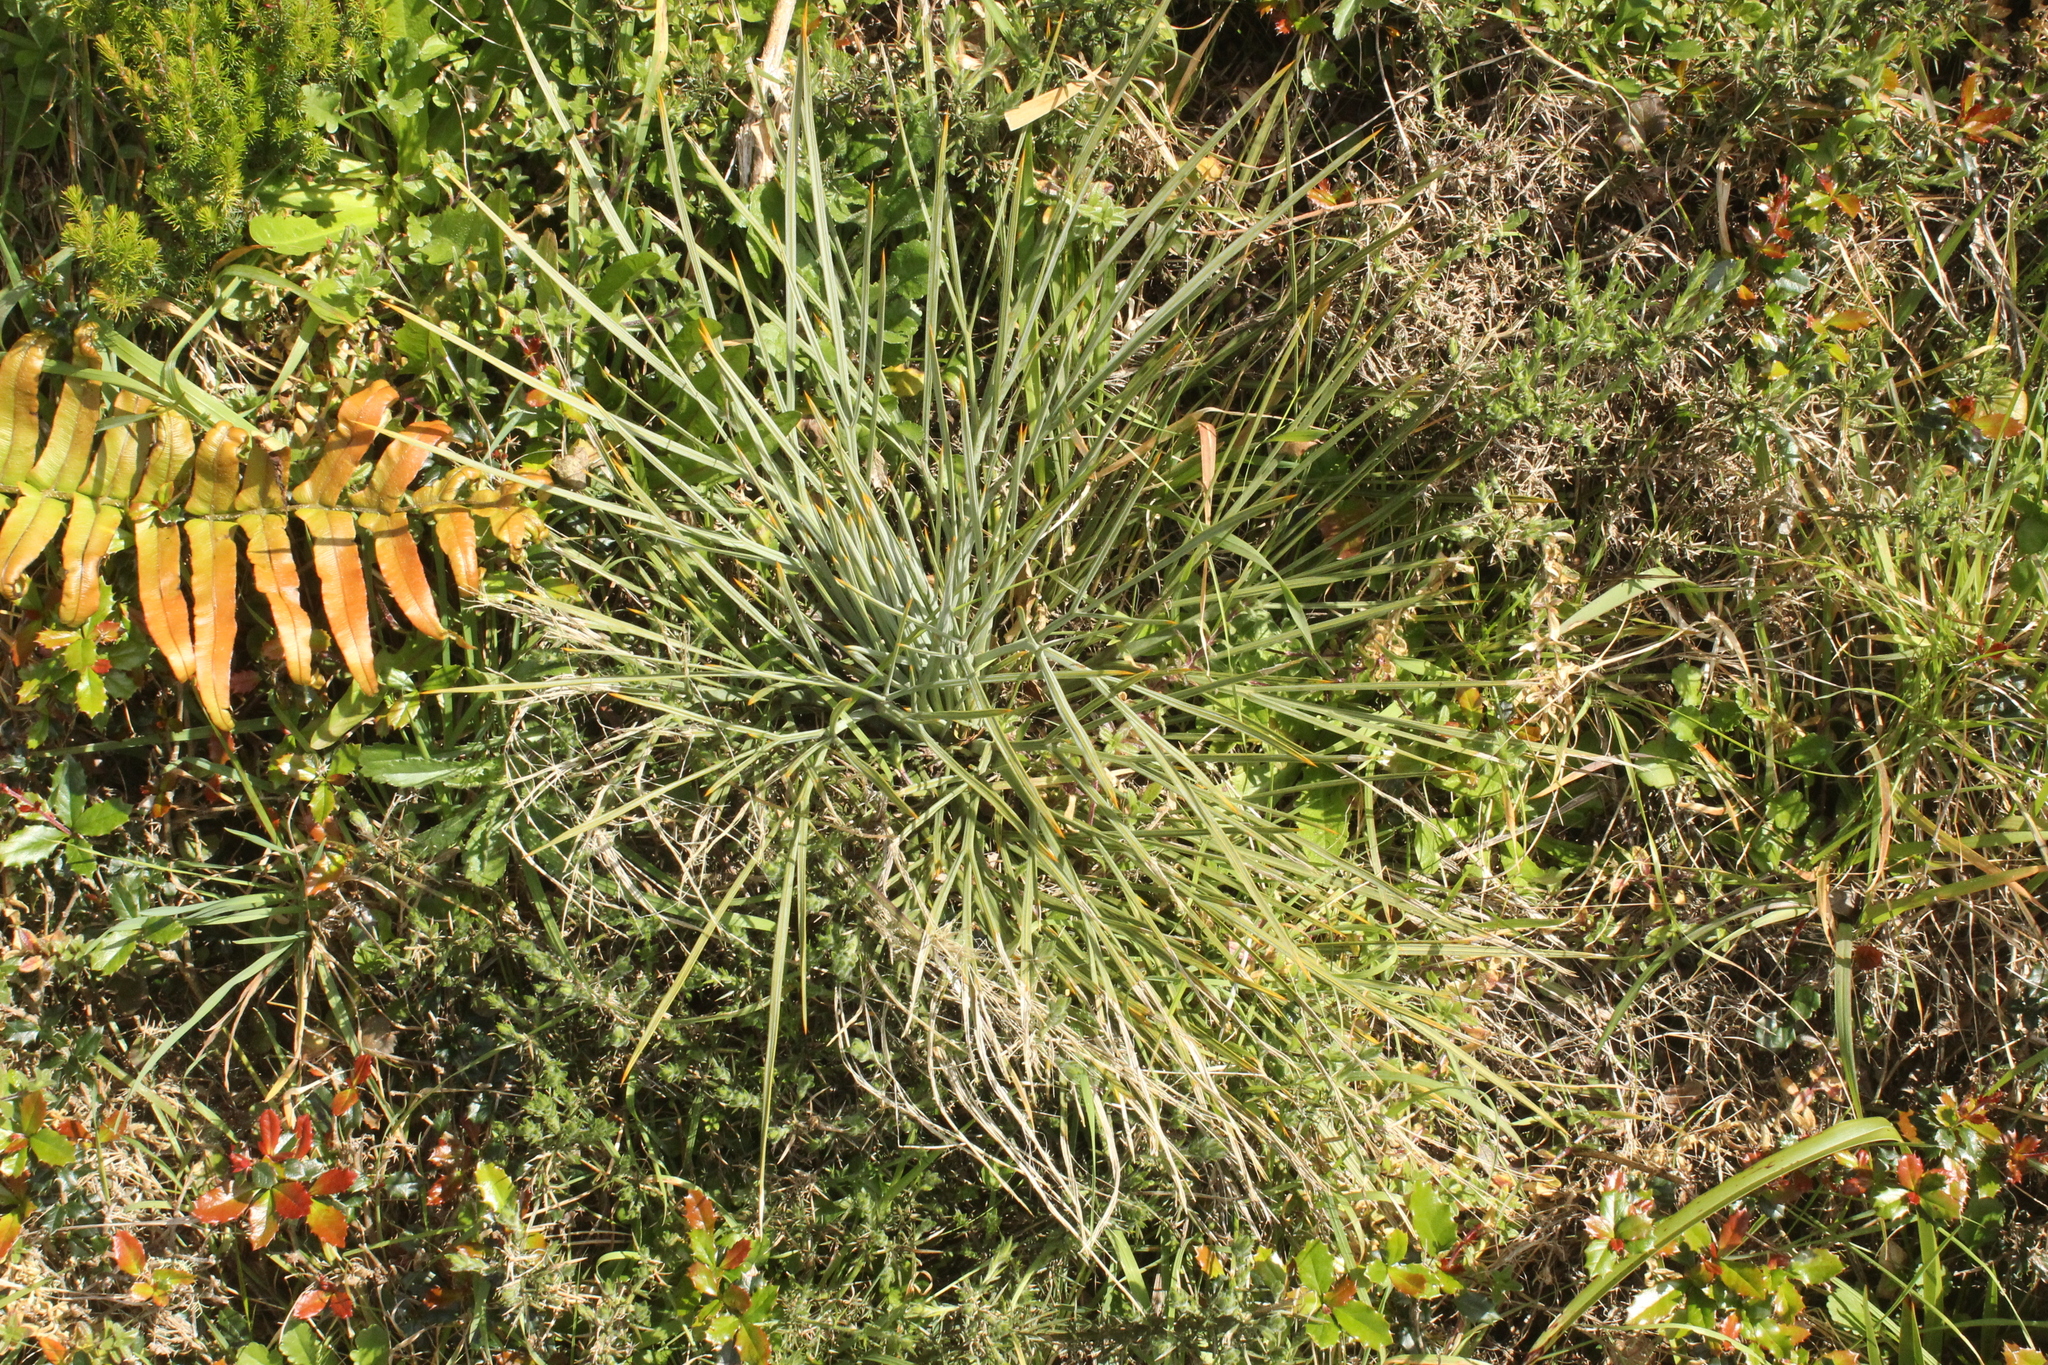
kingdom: Plantae
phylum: Tracheophyta
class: Magnoliopsida
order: Apiales
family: Apiaceae
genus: Aciphylla
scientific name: Aciphylla squarrosa
